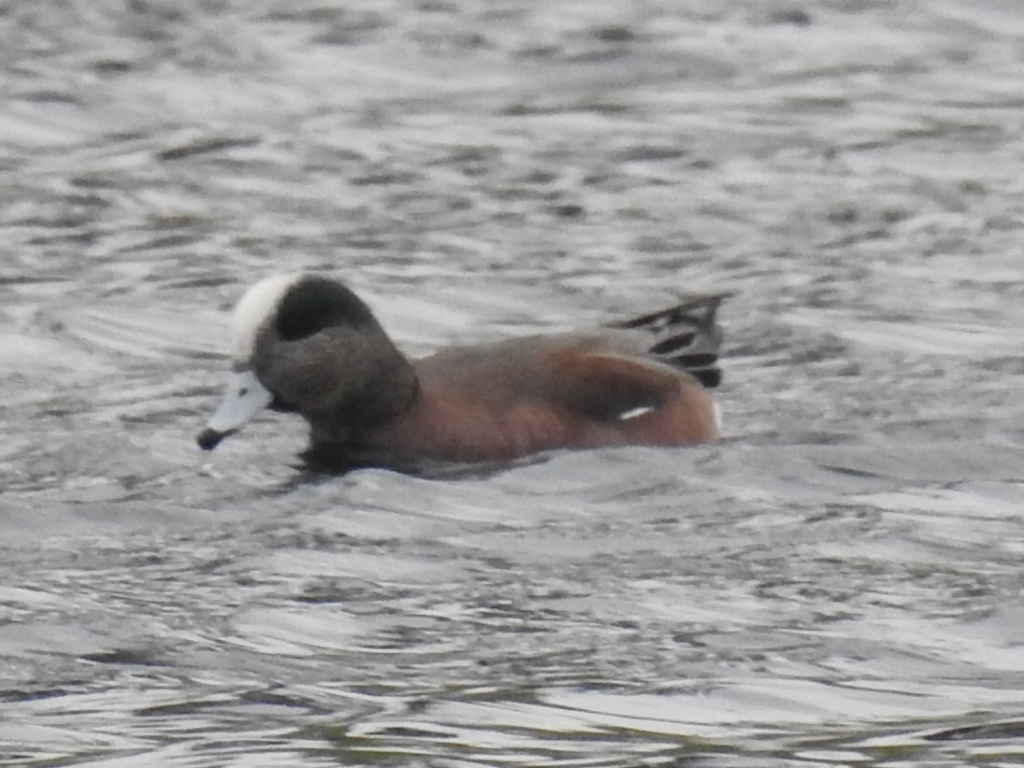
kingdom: Animalia
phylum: Chordata
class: Aves
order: Anseriformes
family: Anatidae
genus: Mareca
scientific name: Mareca americana
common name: American wigeon
